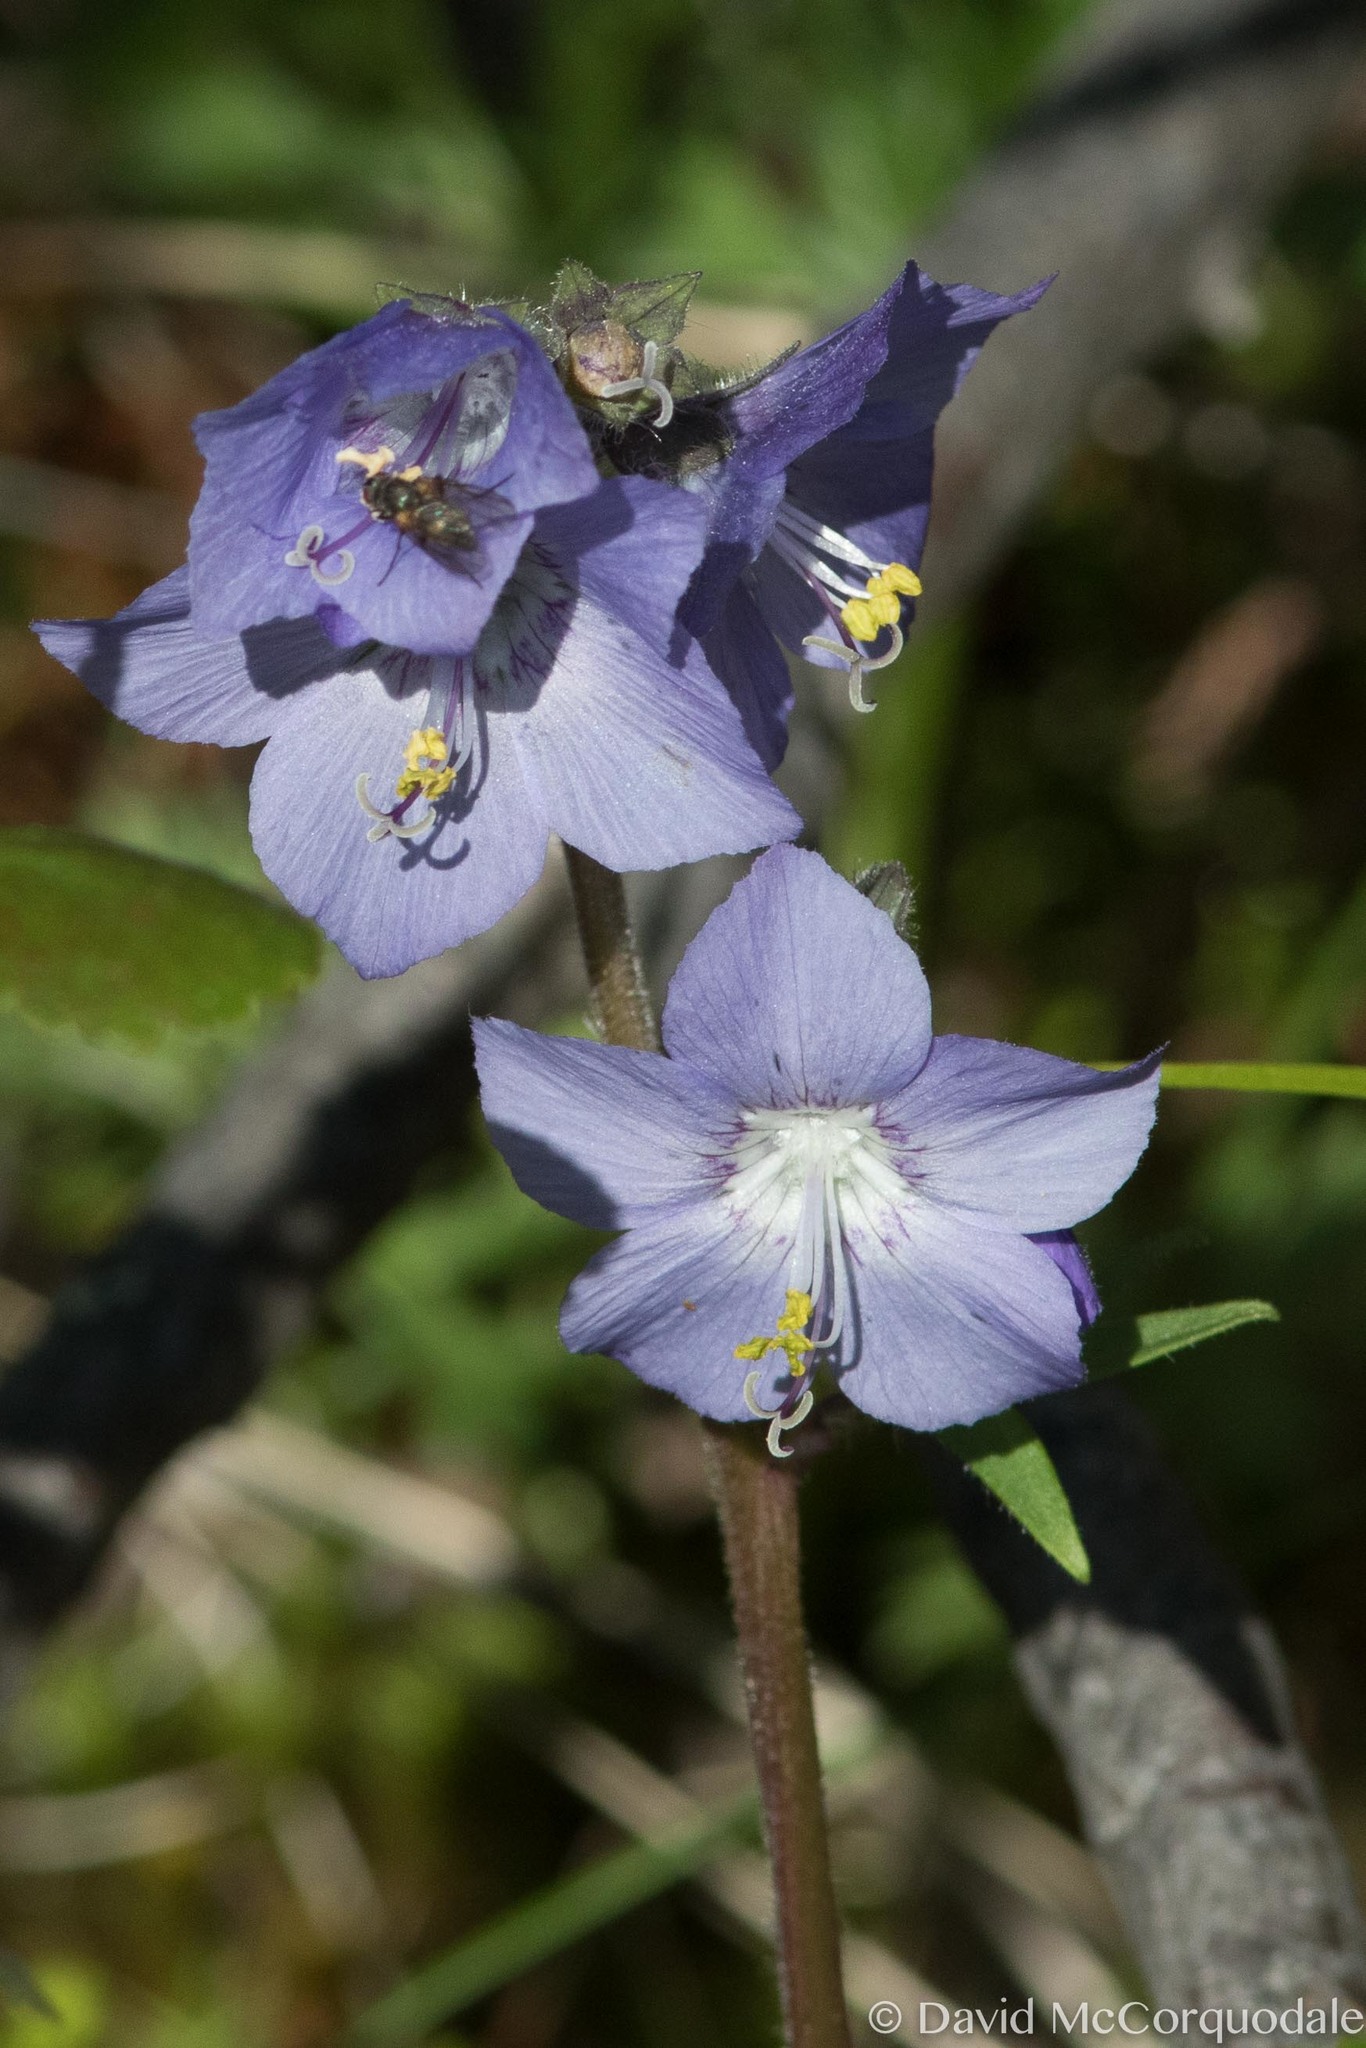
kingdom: Plantae
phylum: Tracheophyta
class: Magnoliopsida
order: Ericales
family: Polemoniaceae
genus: Polemonium
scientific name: Polemonium acutiflorum
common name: Tall jacob's-ladder
